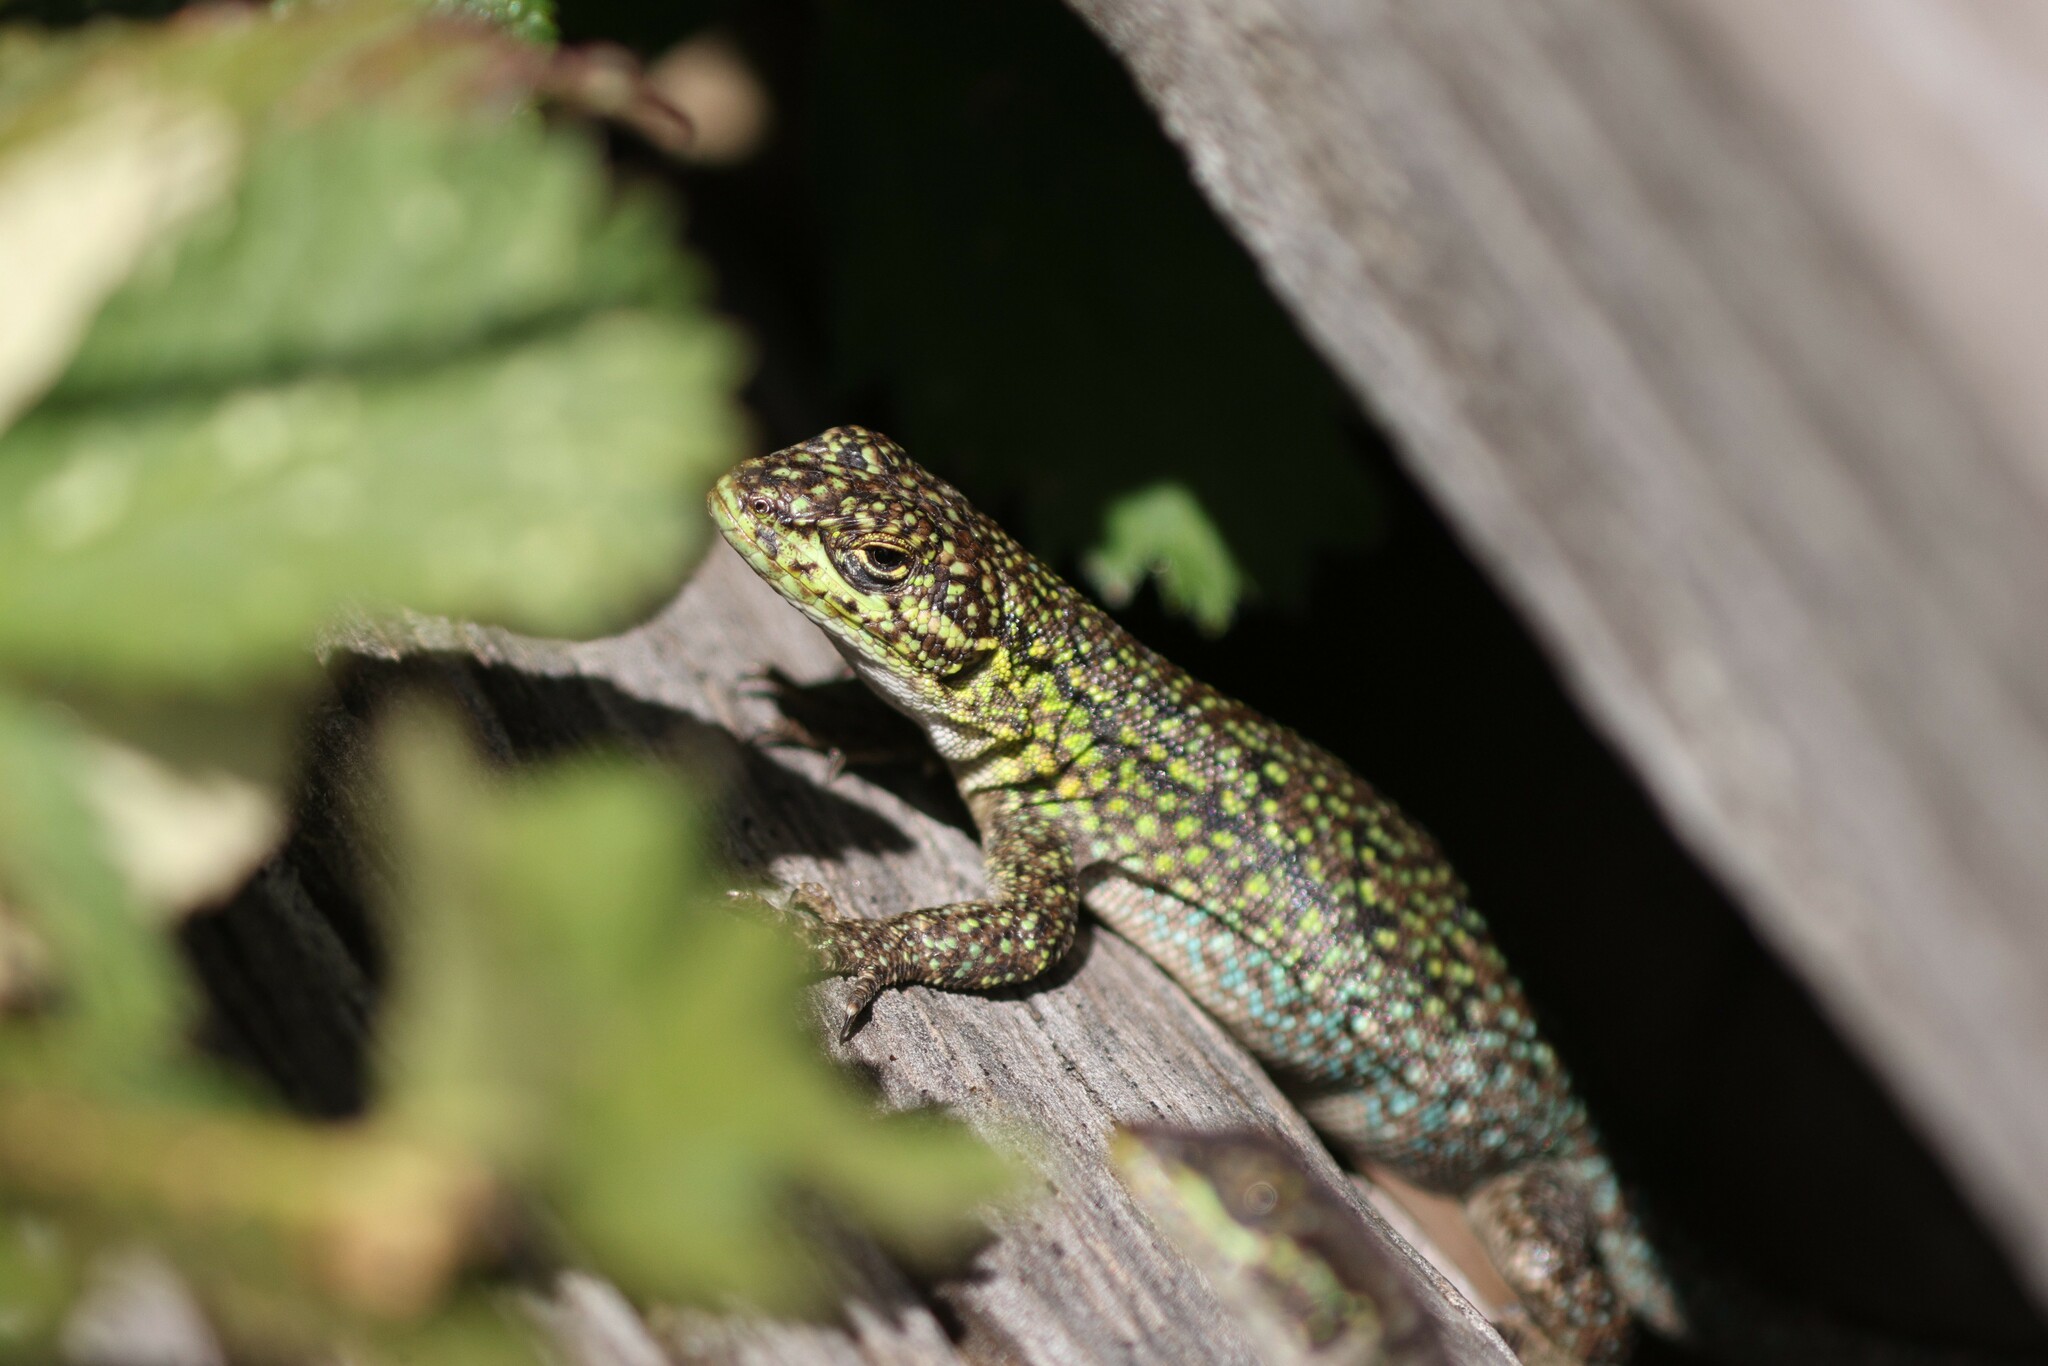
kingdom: Animalia
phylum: Chordata
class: Squamata
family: Liolaemidae
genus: Liolaemus
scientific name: Liolaemus tenuis
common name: Thin tree iguana
